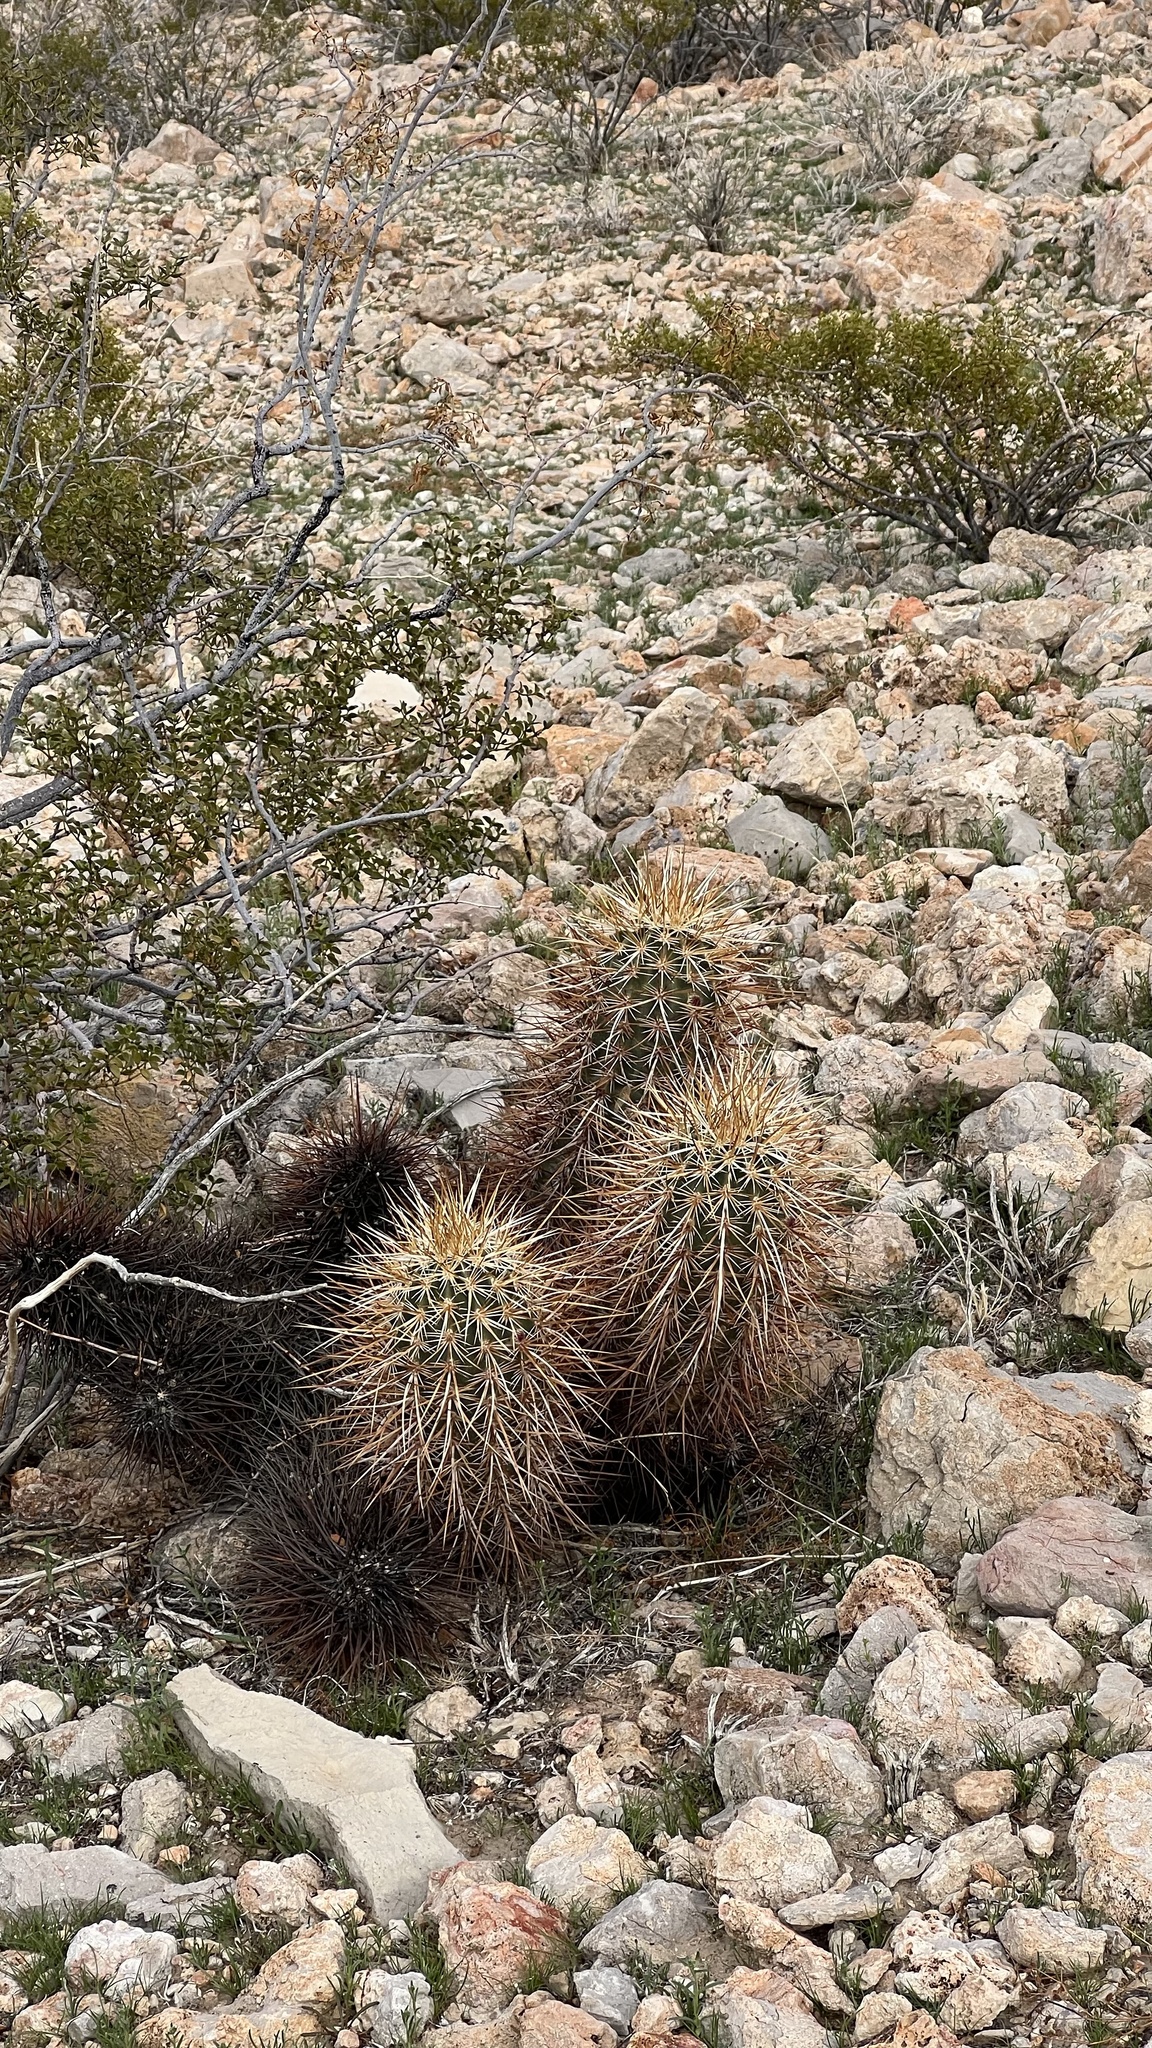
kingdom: Plantae
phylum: Tracheophyta
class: Magnoliopsida
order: Caryophyllales
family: Cactaceae
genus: Echinocereus
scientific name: Echinocereus engelmannii
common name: Engelmann's hedgehog cactus
